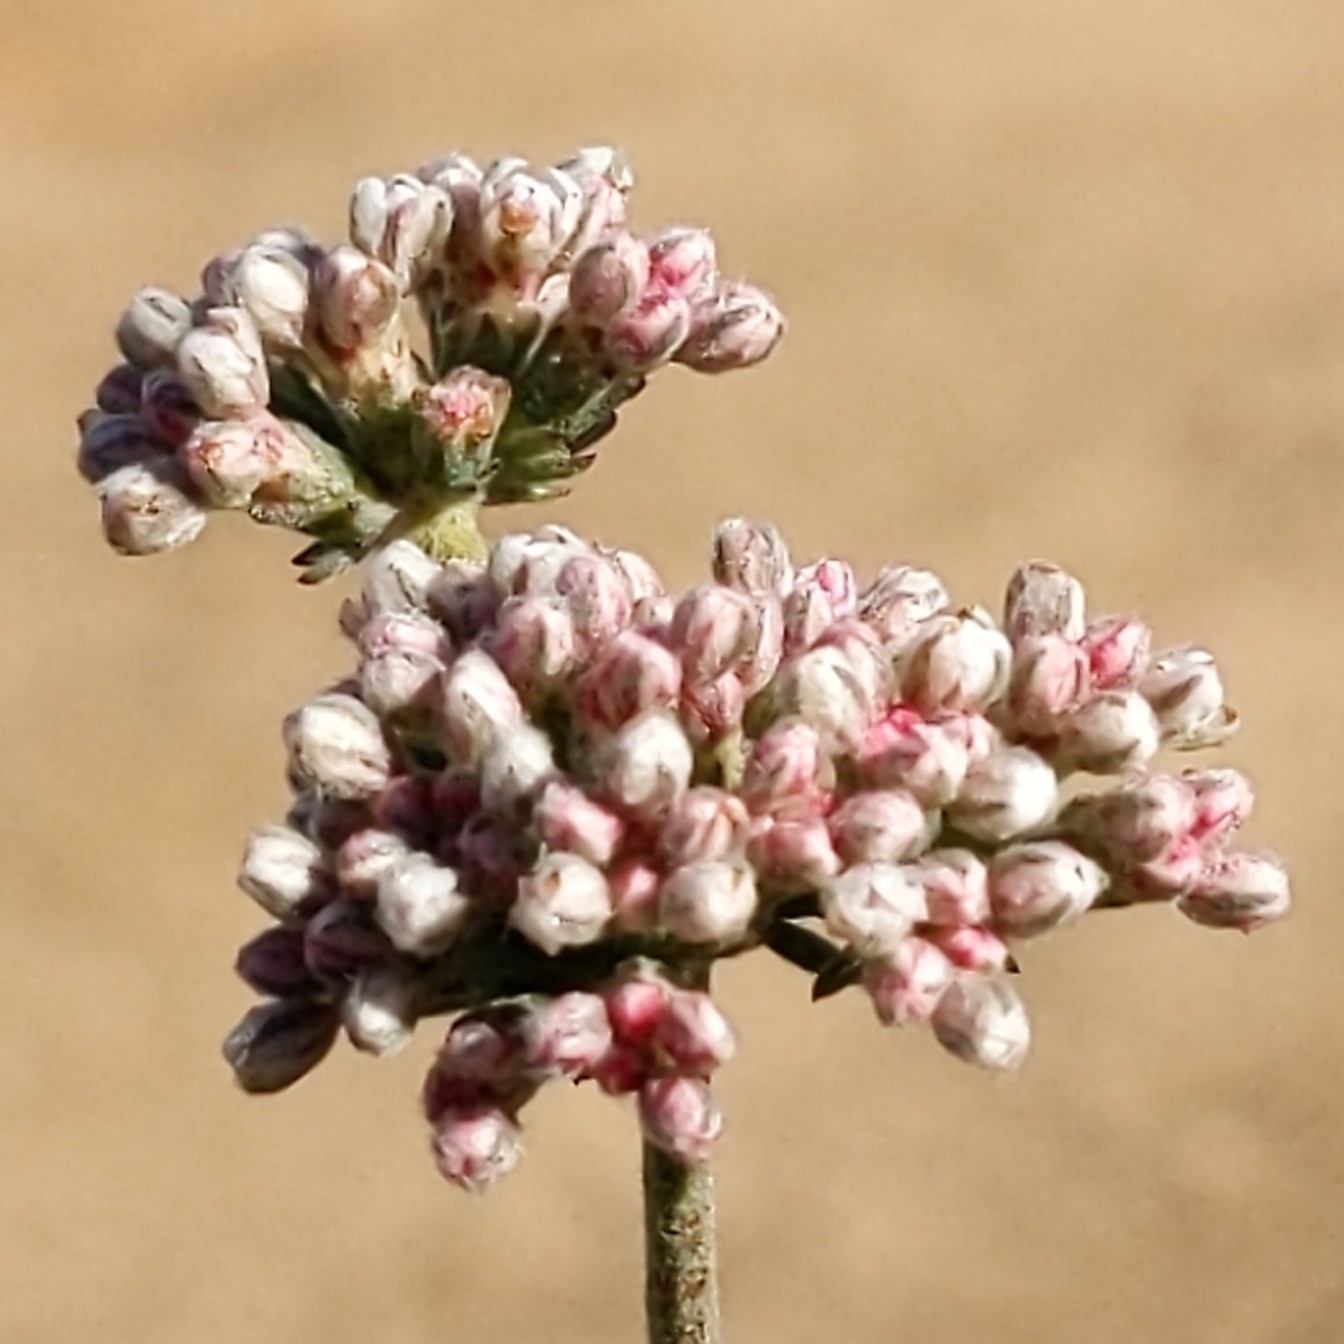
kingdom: Plantae
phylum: Tracheophyta
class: Magnoliopsida
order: Caryophyllales
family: Polygonaceae
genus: Eriogonum
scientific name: Eriogonum fasciculatum
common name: California wild buckwheat
